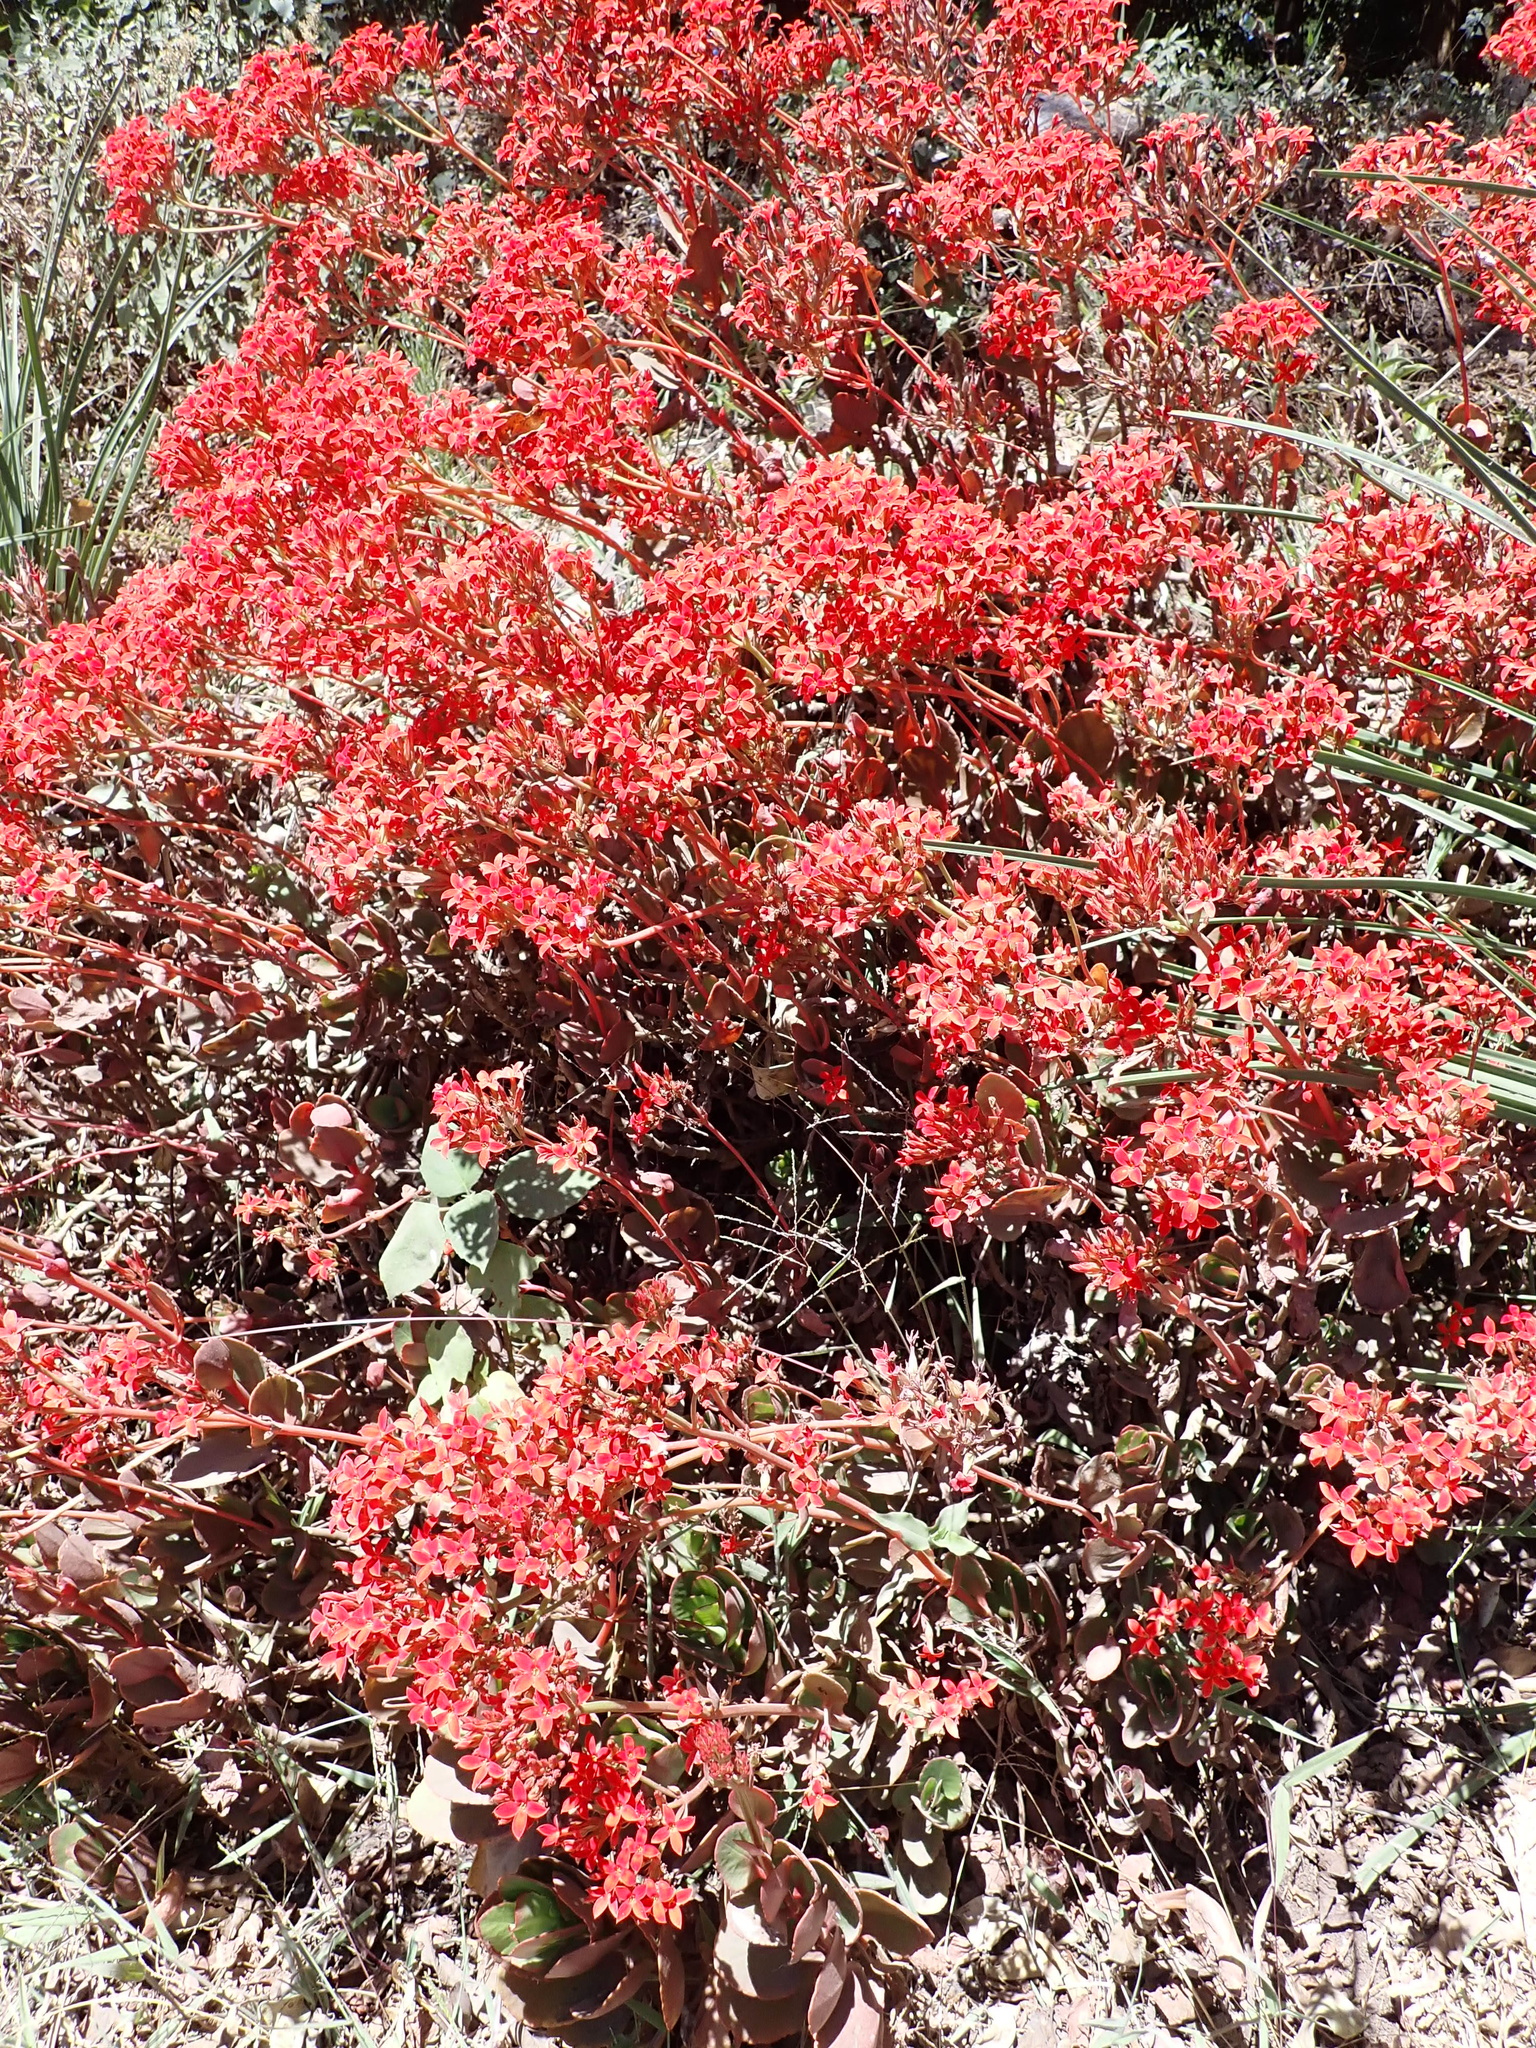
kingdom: Plantae
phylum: Tracheophyta
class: Magnoliopsida
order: Saxifragales
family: Crassulaceae
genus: Kalanchoe
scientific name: Kalanchoe blossfeldiana
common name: Flaming katy
